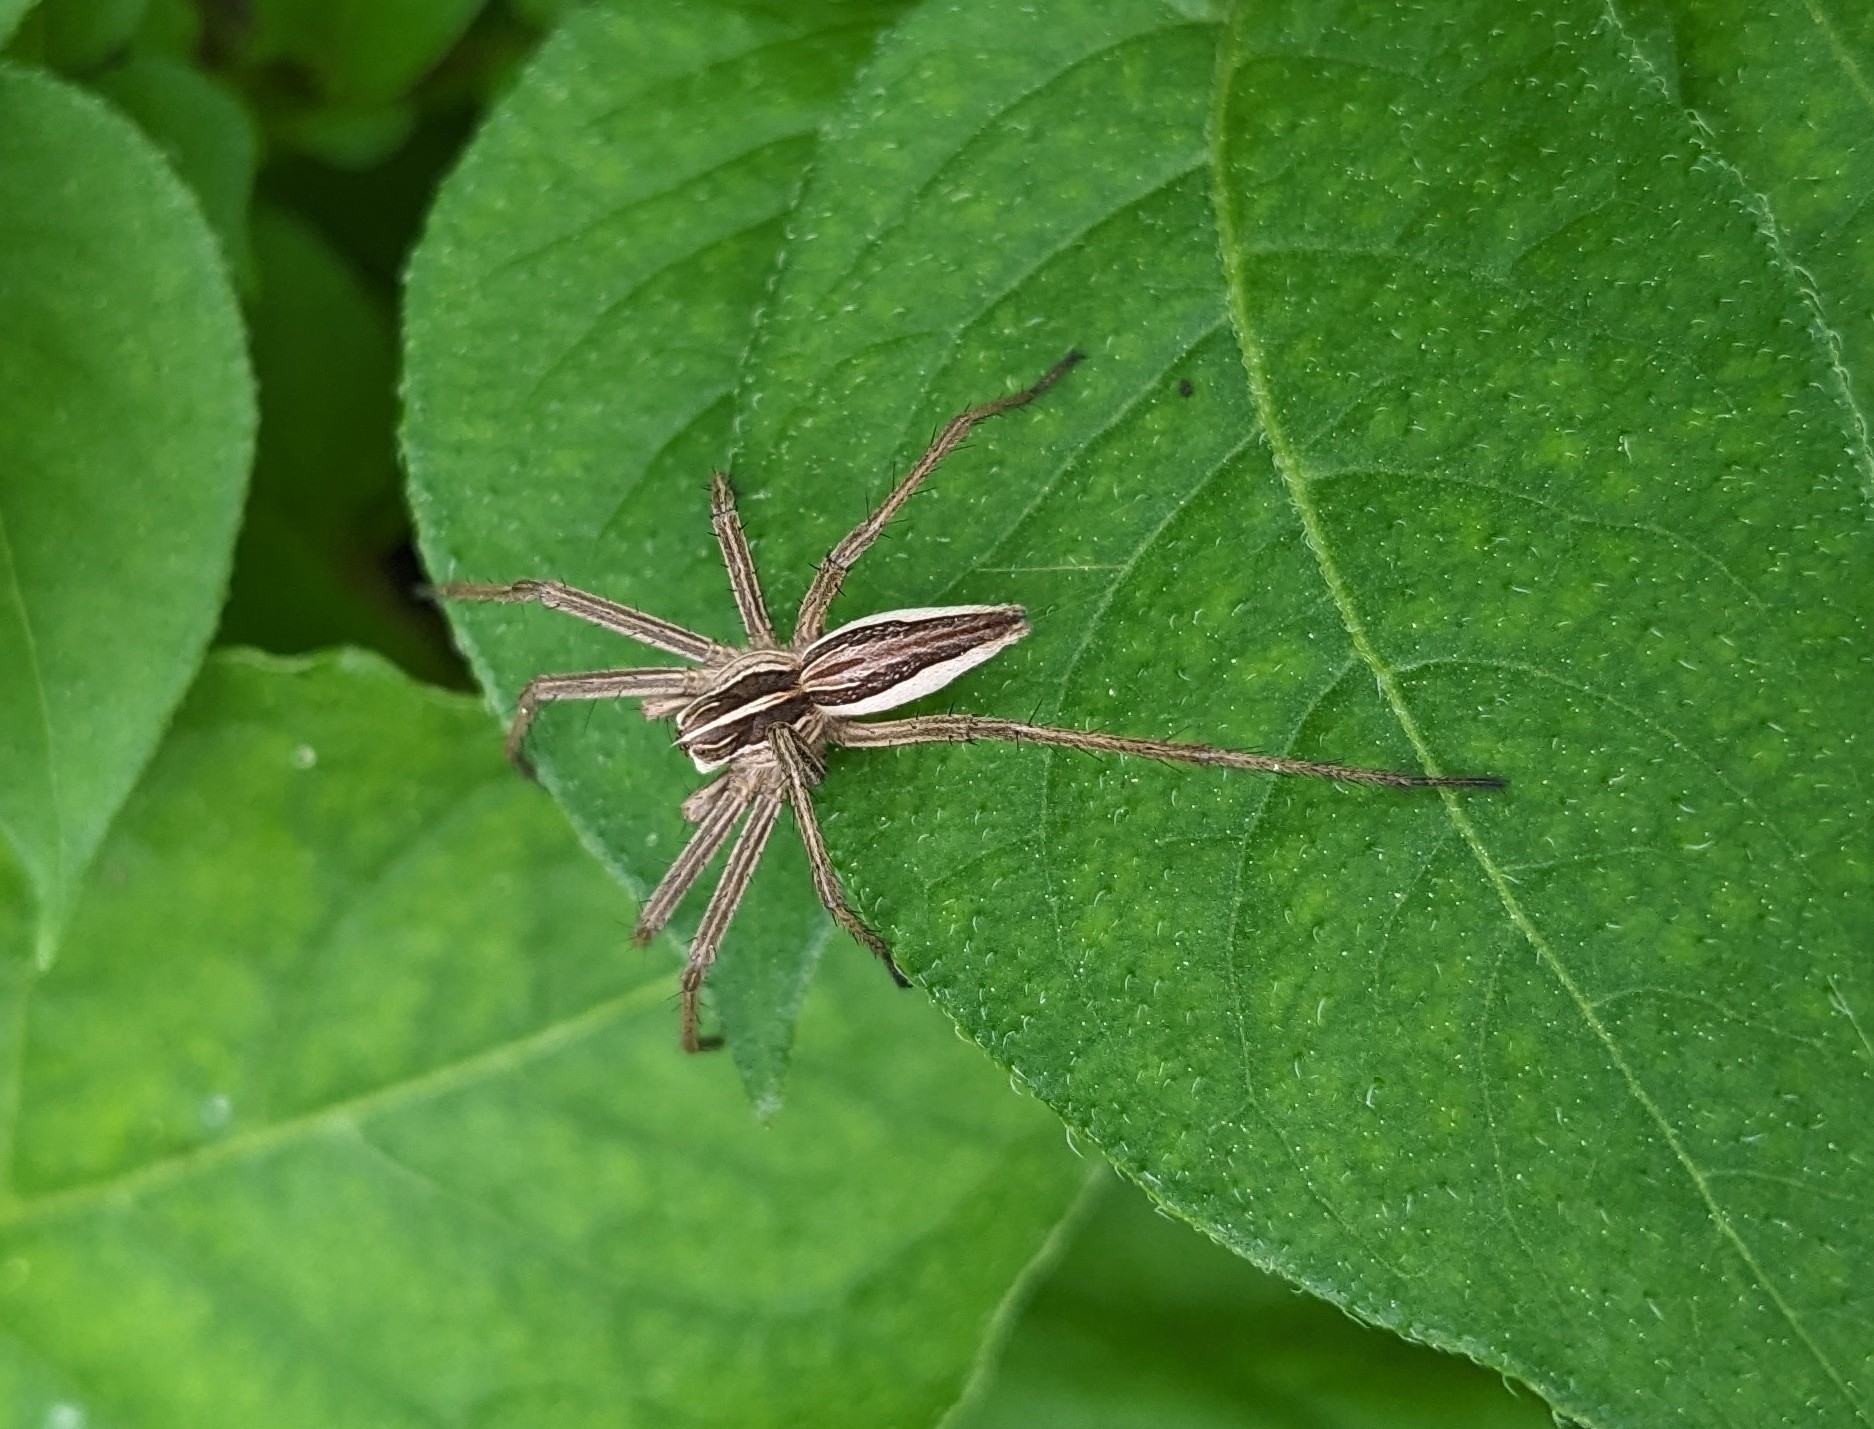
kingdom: Animalia
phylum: Arthropoda
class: Arachnida
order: Araneae
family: Pisauridae
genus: Pisaura
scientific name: Pisaura mirabilis
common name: Tent spider
